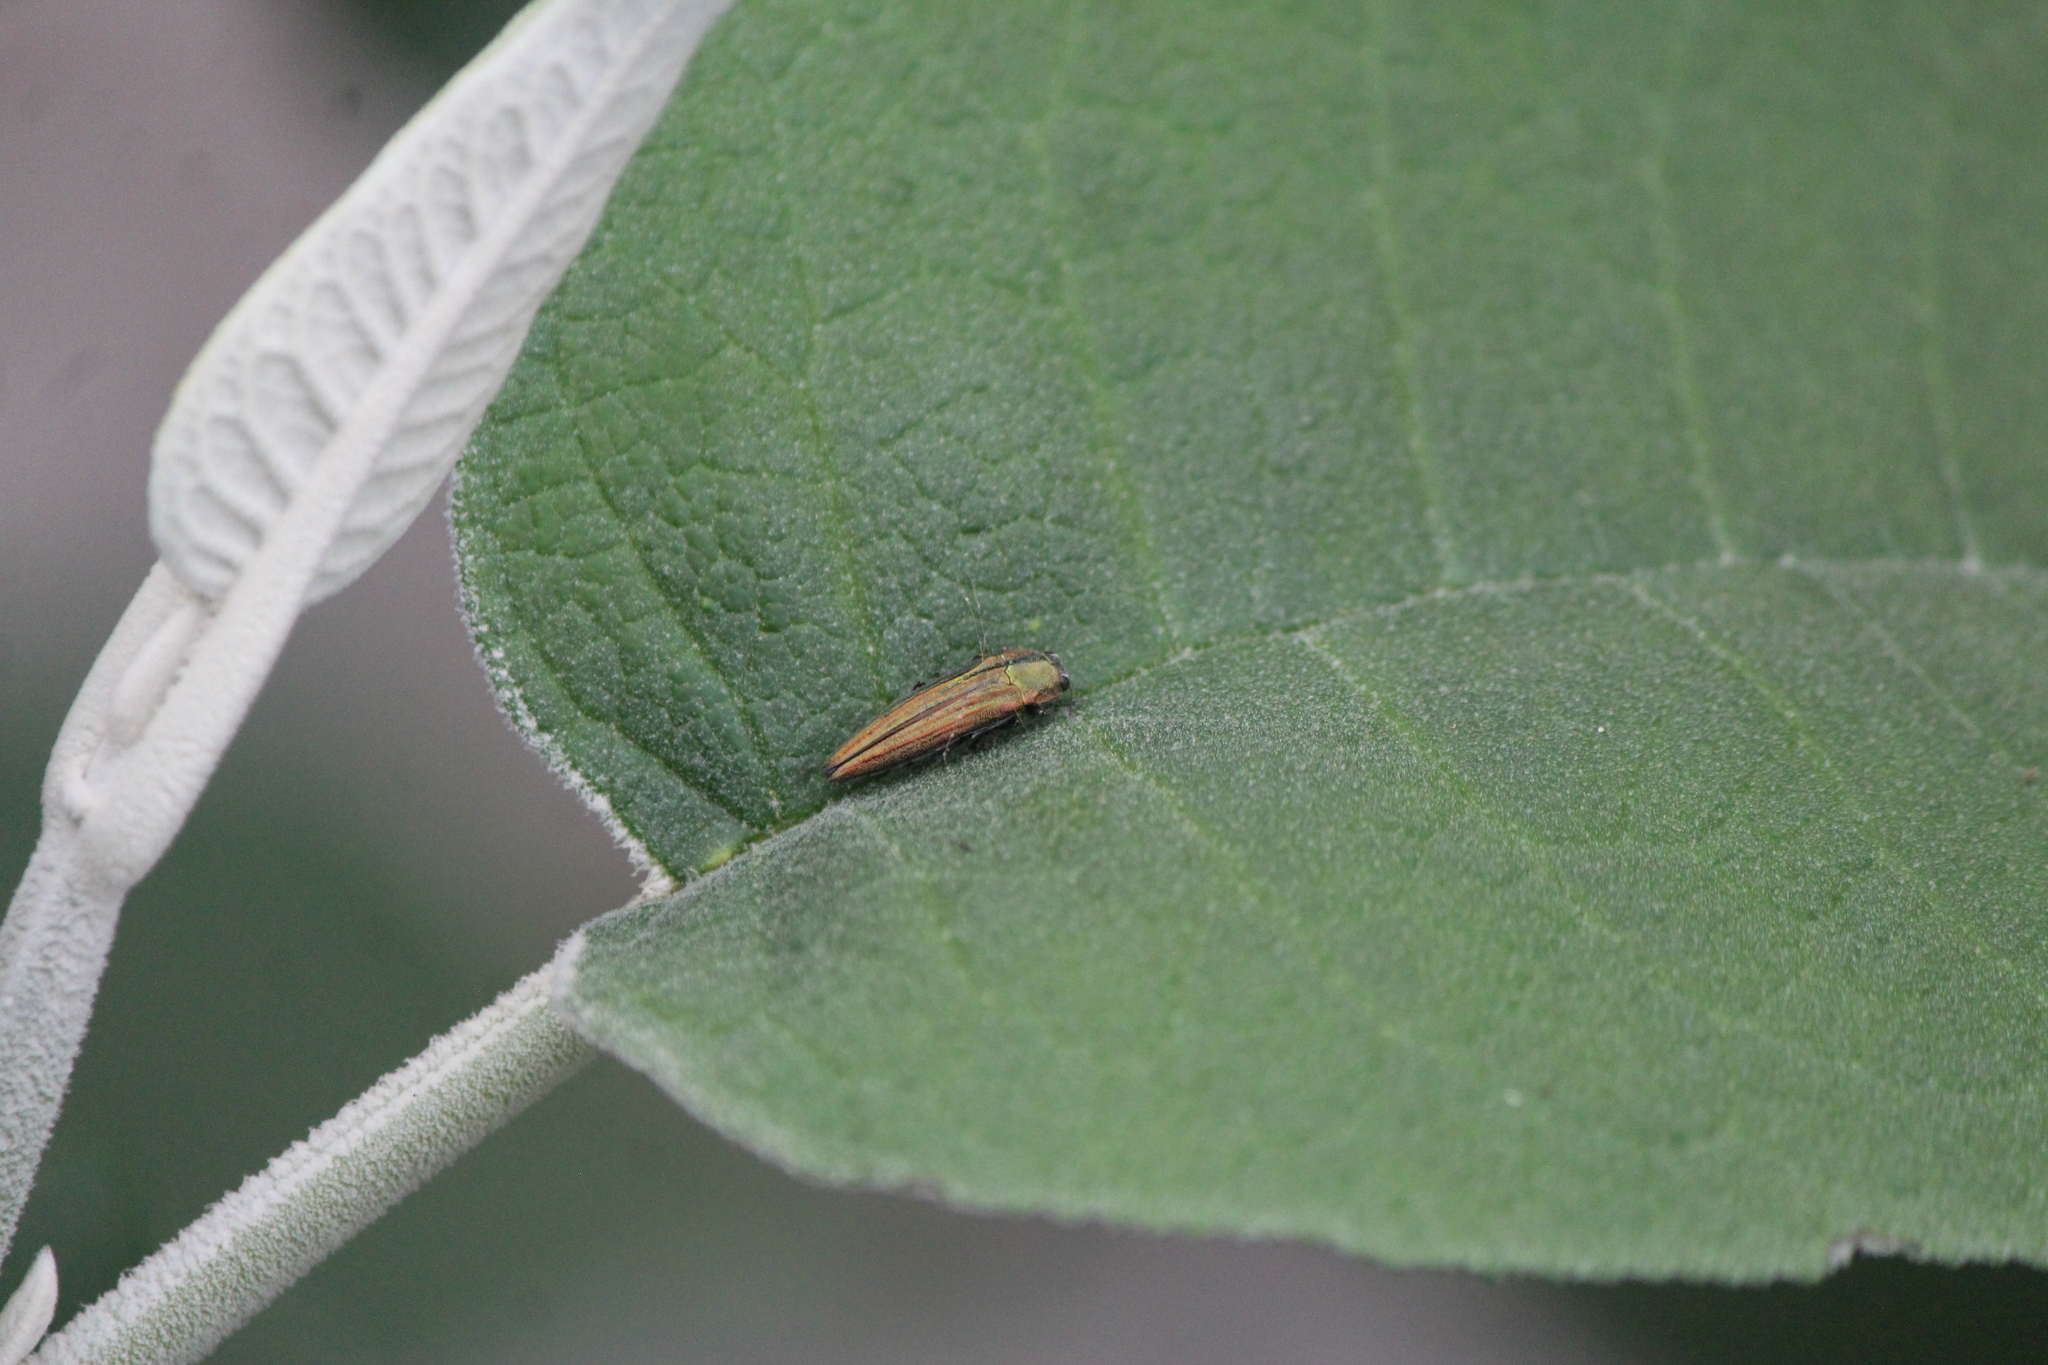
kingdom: Animalia
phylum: Arthropoda
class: Insecta
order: Coleoptera
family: Buprestidae
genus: Agrilus
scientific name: Agrilus sulcatulus
